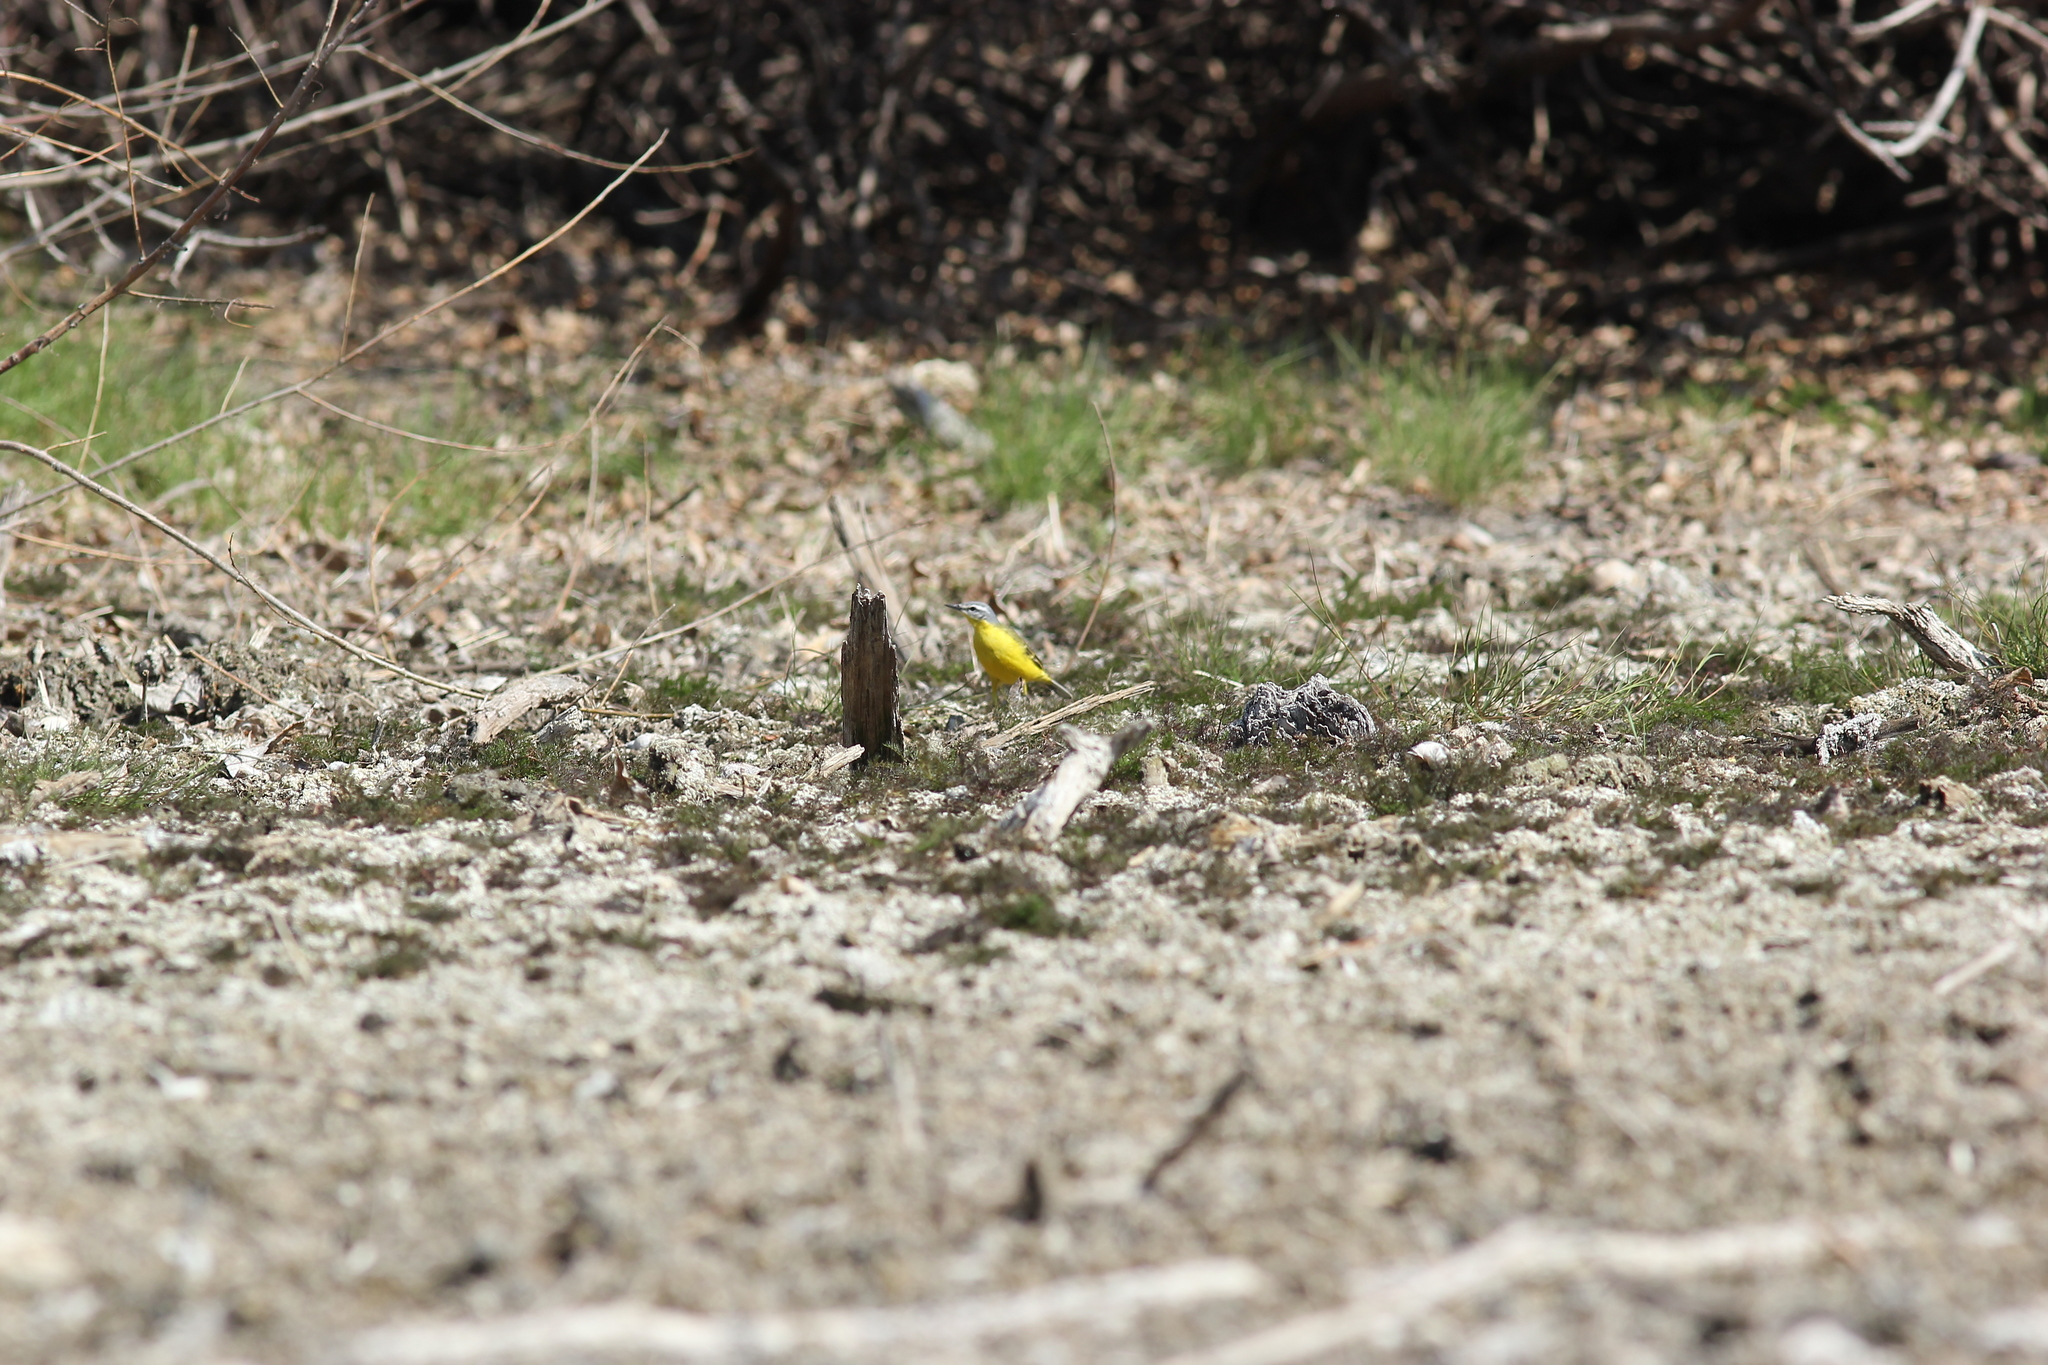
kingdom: Animalia
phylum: Chordata
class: Aves
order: Passeriformes
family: Motacillidae
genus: Motacilla
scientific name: Motacilla flava
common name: Western yellow wagtail
